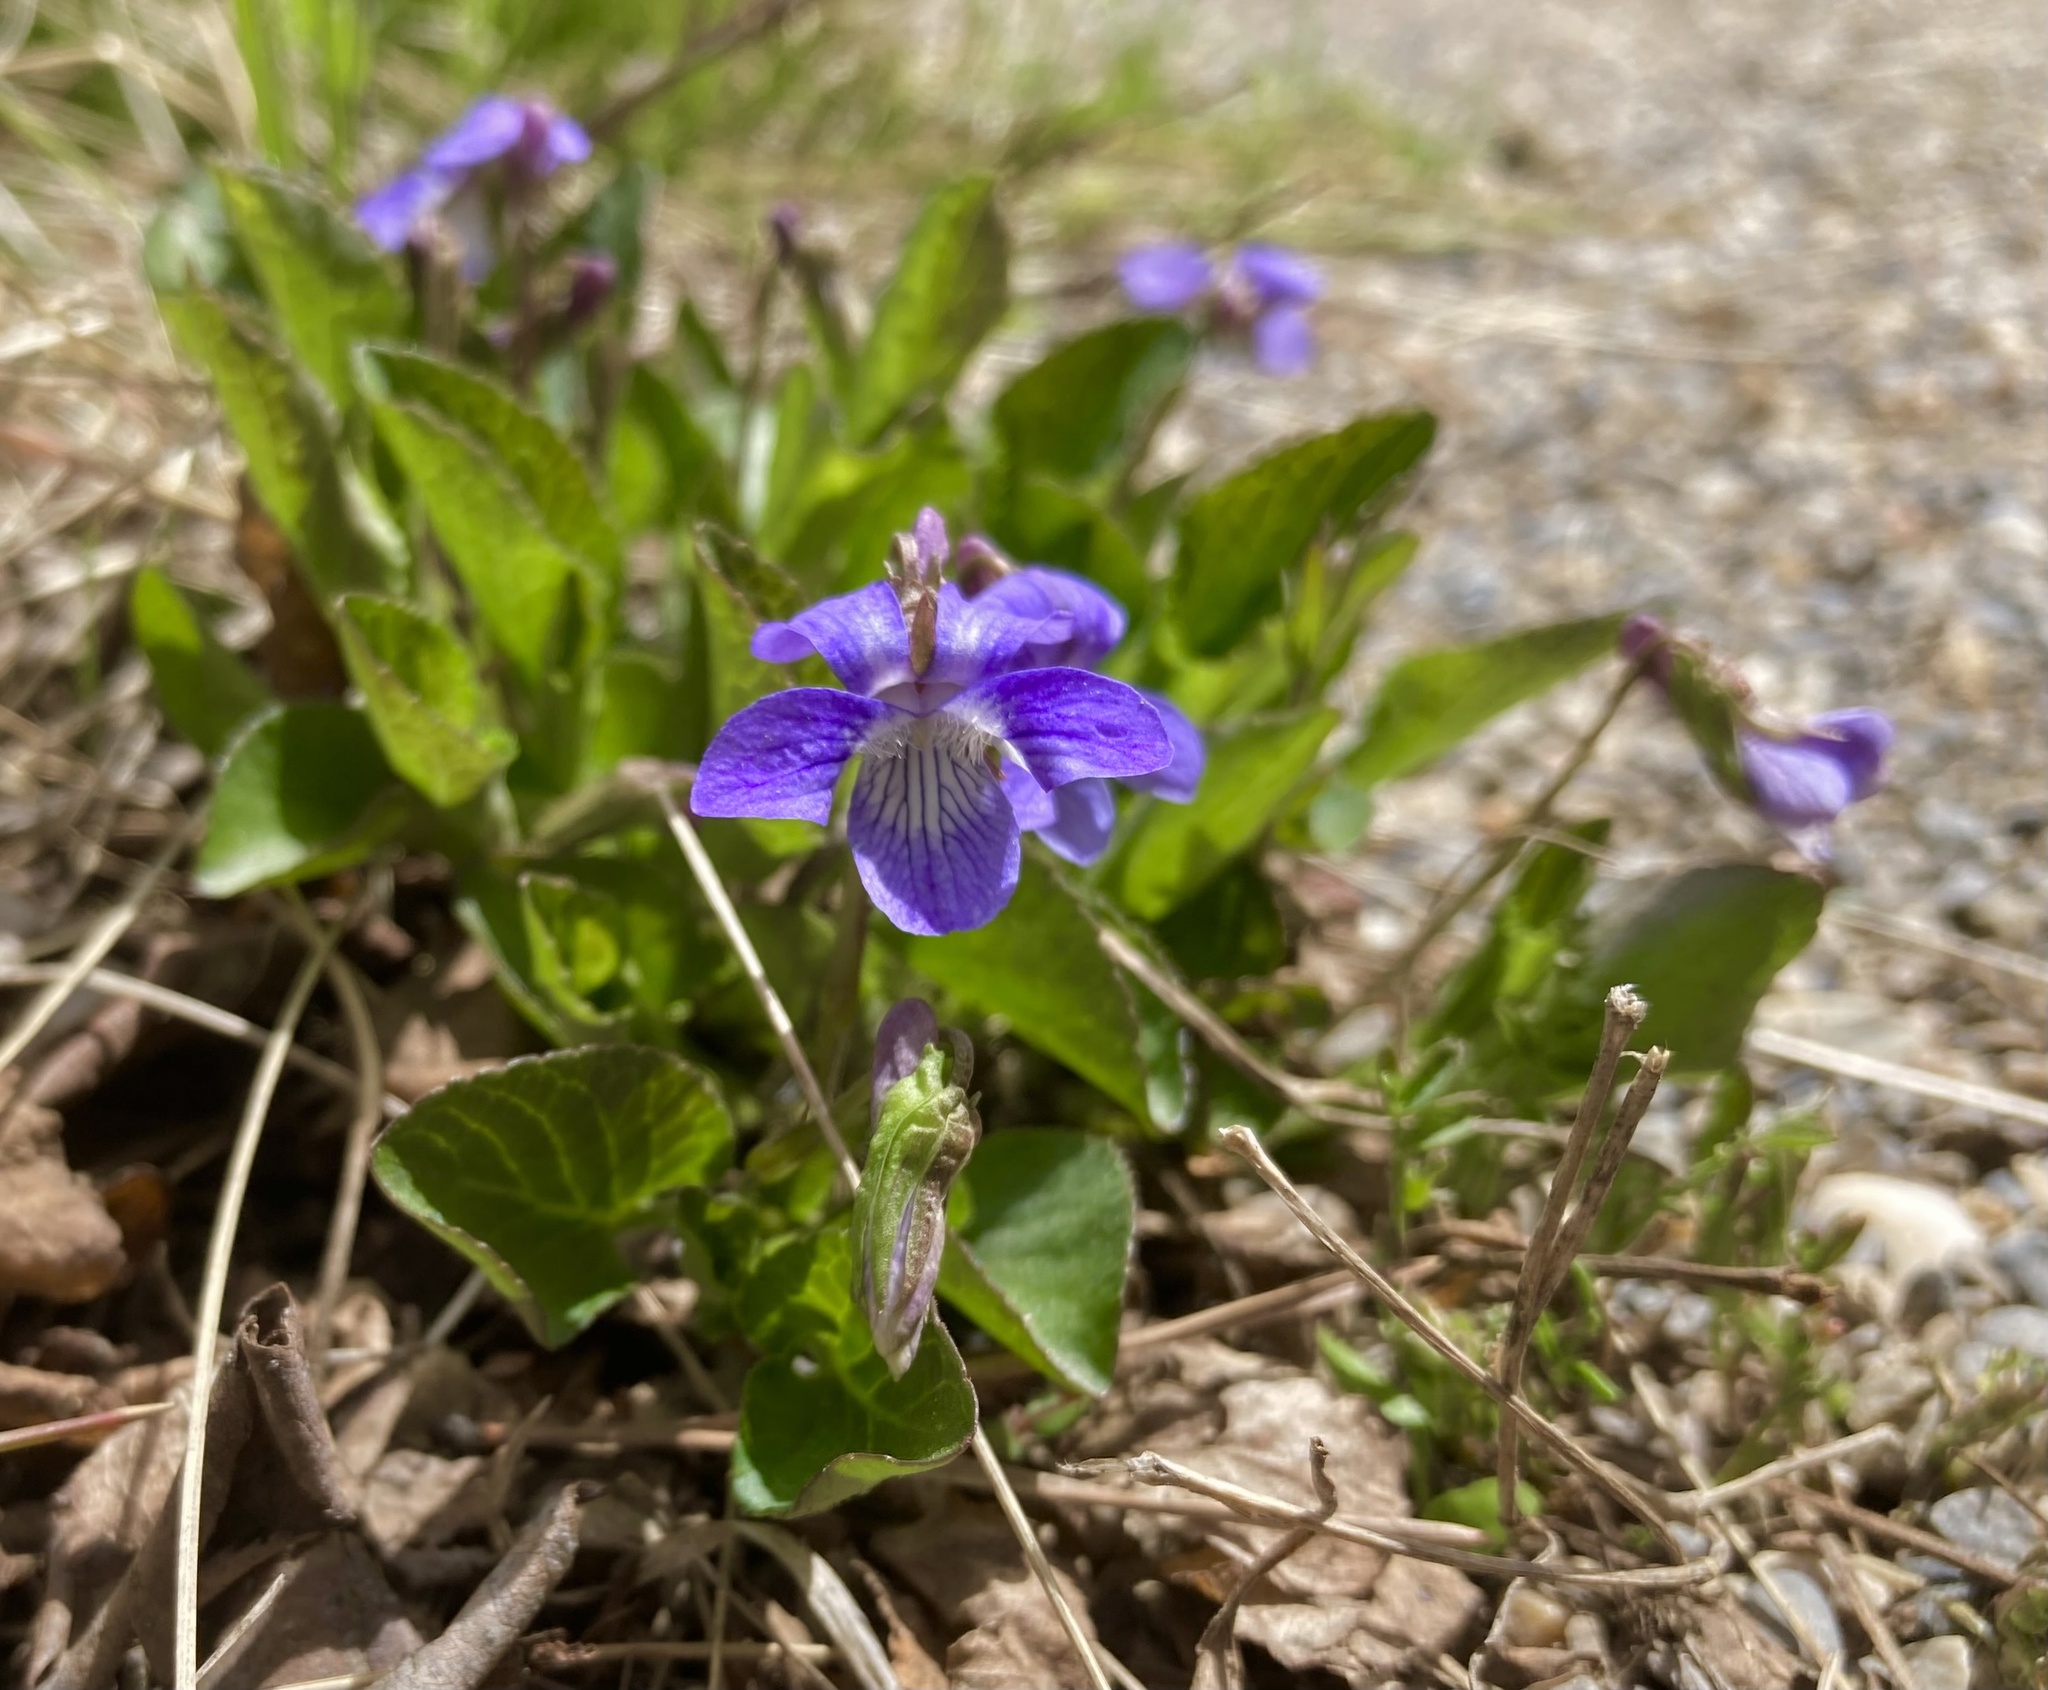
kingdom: Plantae
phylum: Tracheophyta
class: Magnoliopsida
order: Malpighiales
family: Violaceae
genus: Viola
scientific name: Viola adunca
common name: Sand violet
